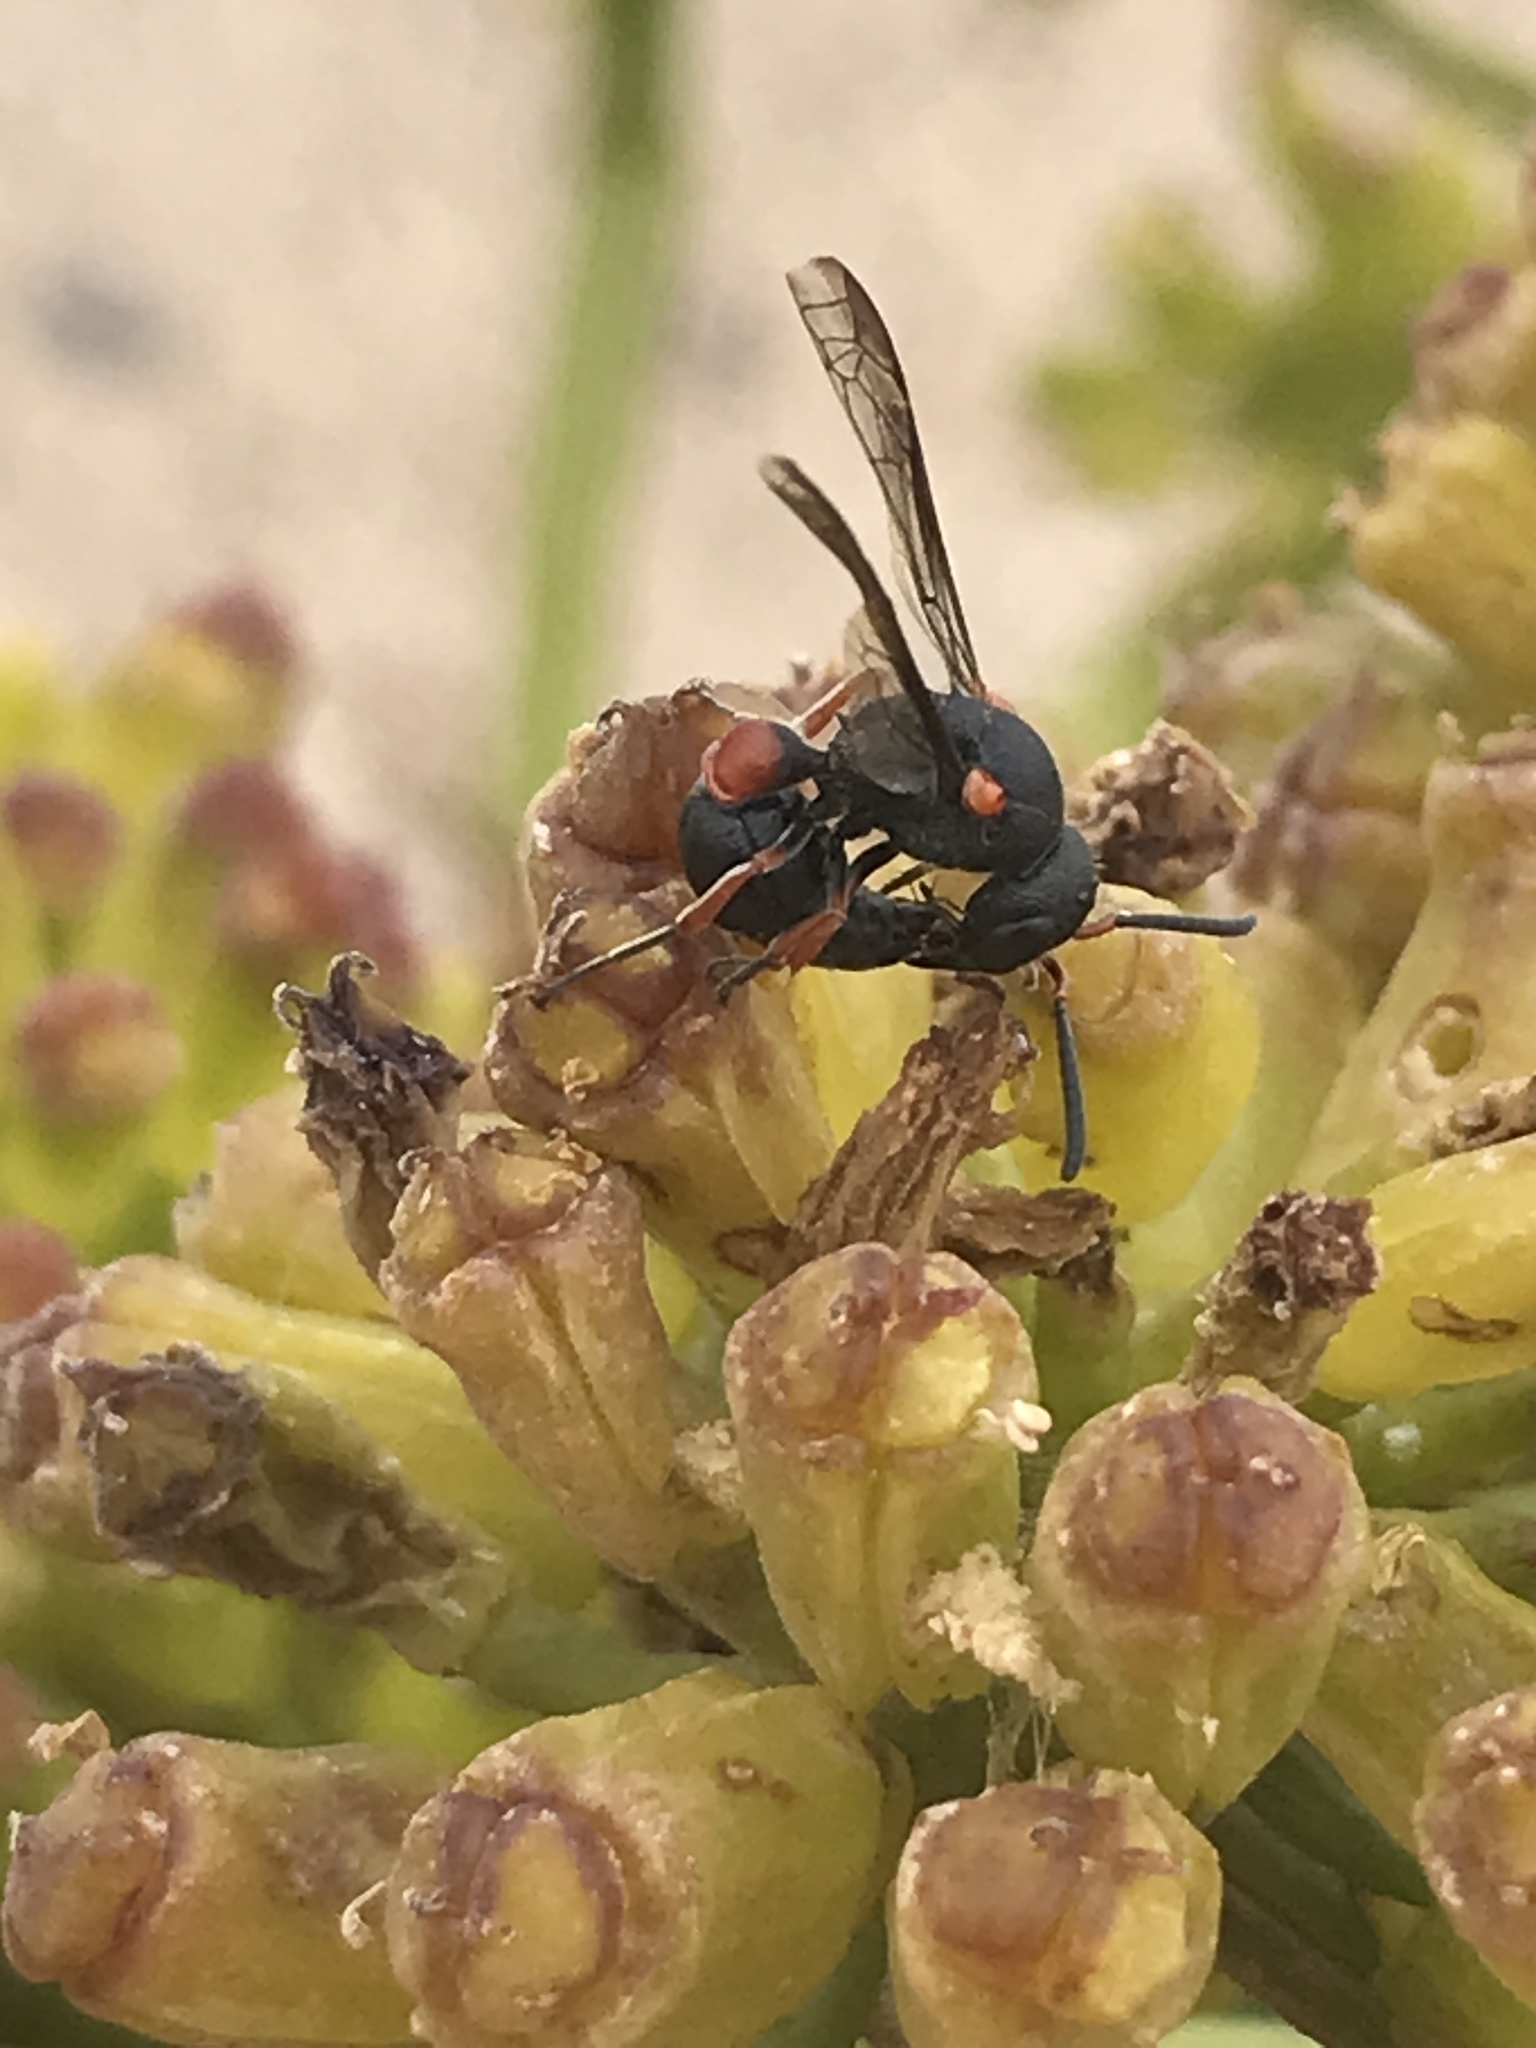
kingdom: Animalia
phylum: Arthropoda
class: Insecta
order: Hymenoptera
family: Eumenidae
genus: Leptochilus
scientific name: Leptochilus cruentatus
